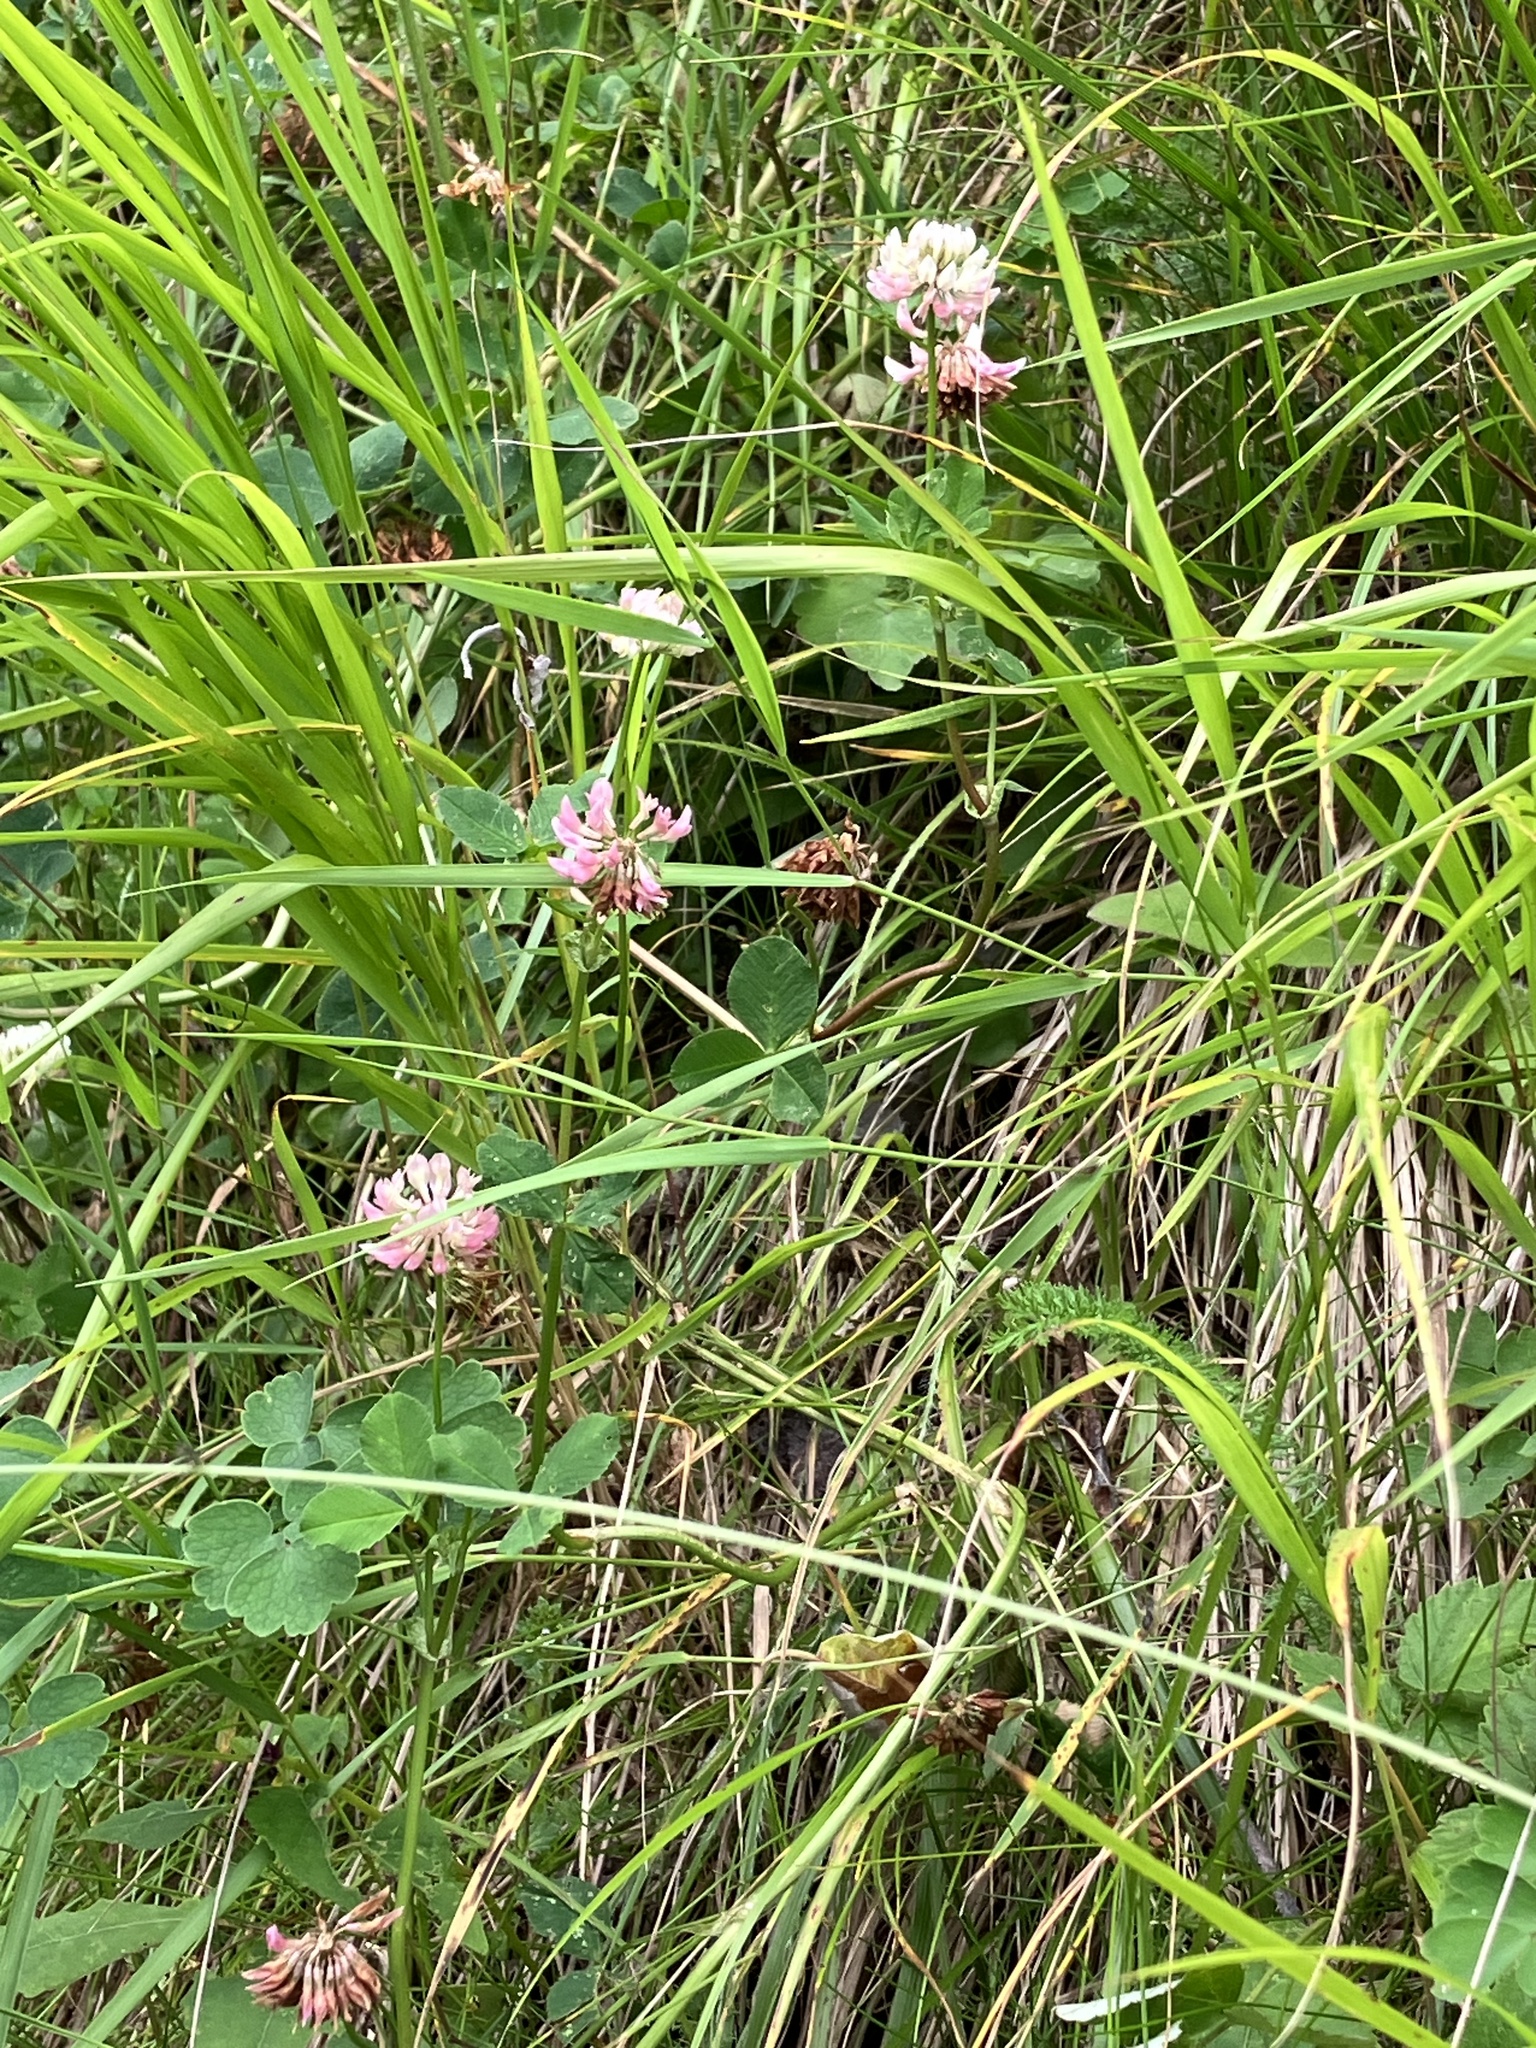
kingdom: Plantae
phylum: Tracheophyta
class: Magnoliopsida
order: Fabales
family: Fabaceae
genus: Trifolium
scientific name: Trifolium hybridum
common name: Alsike clover
